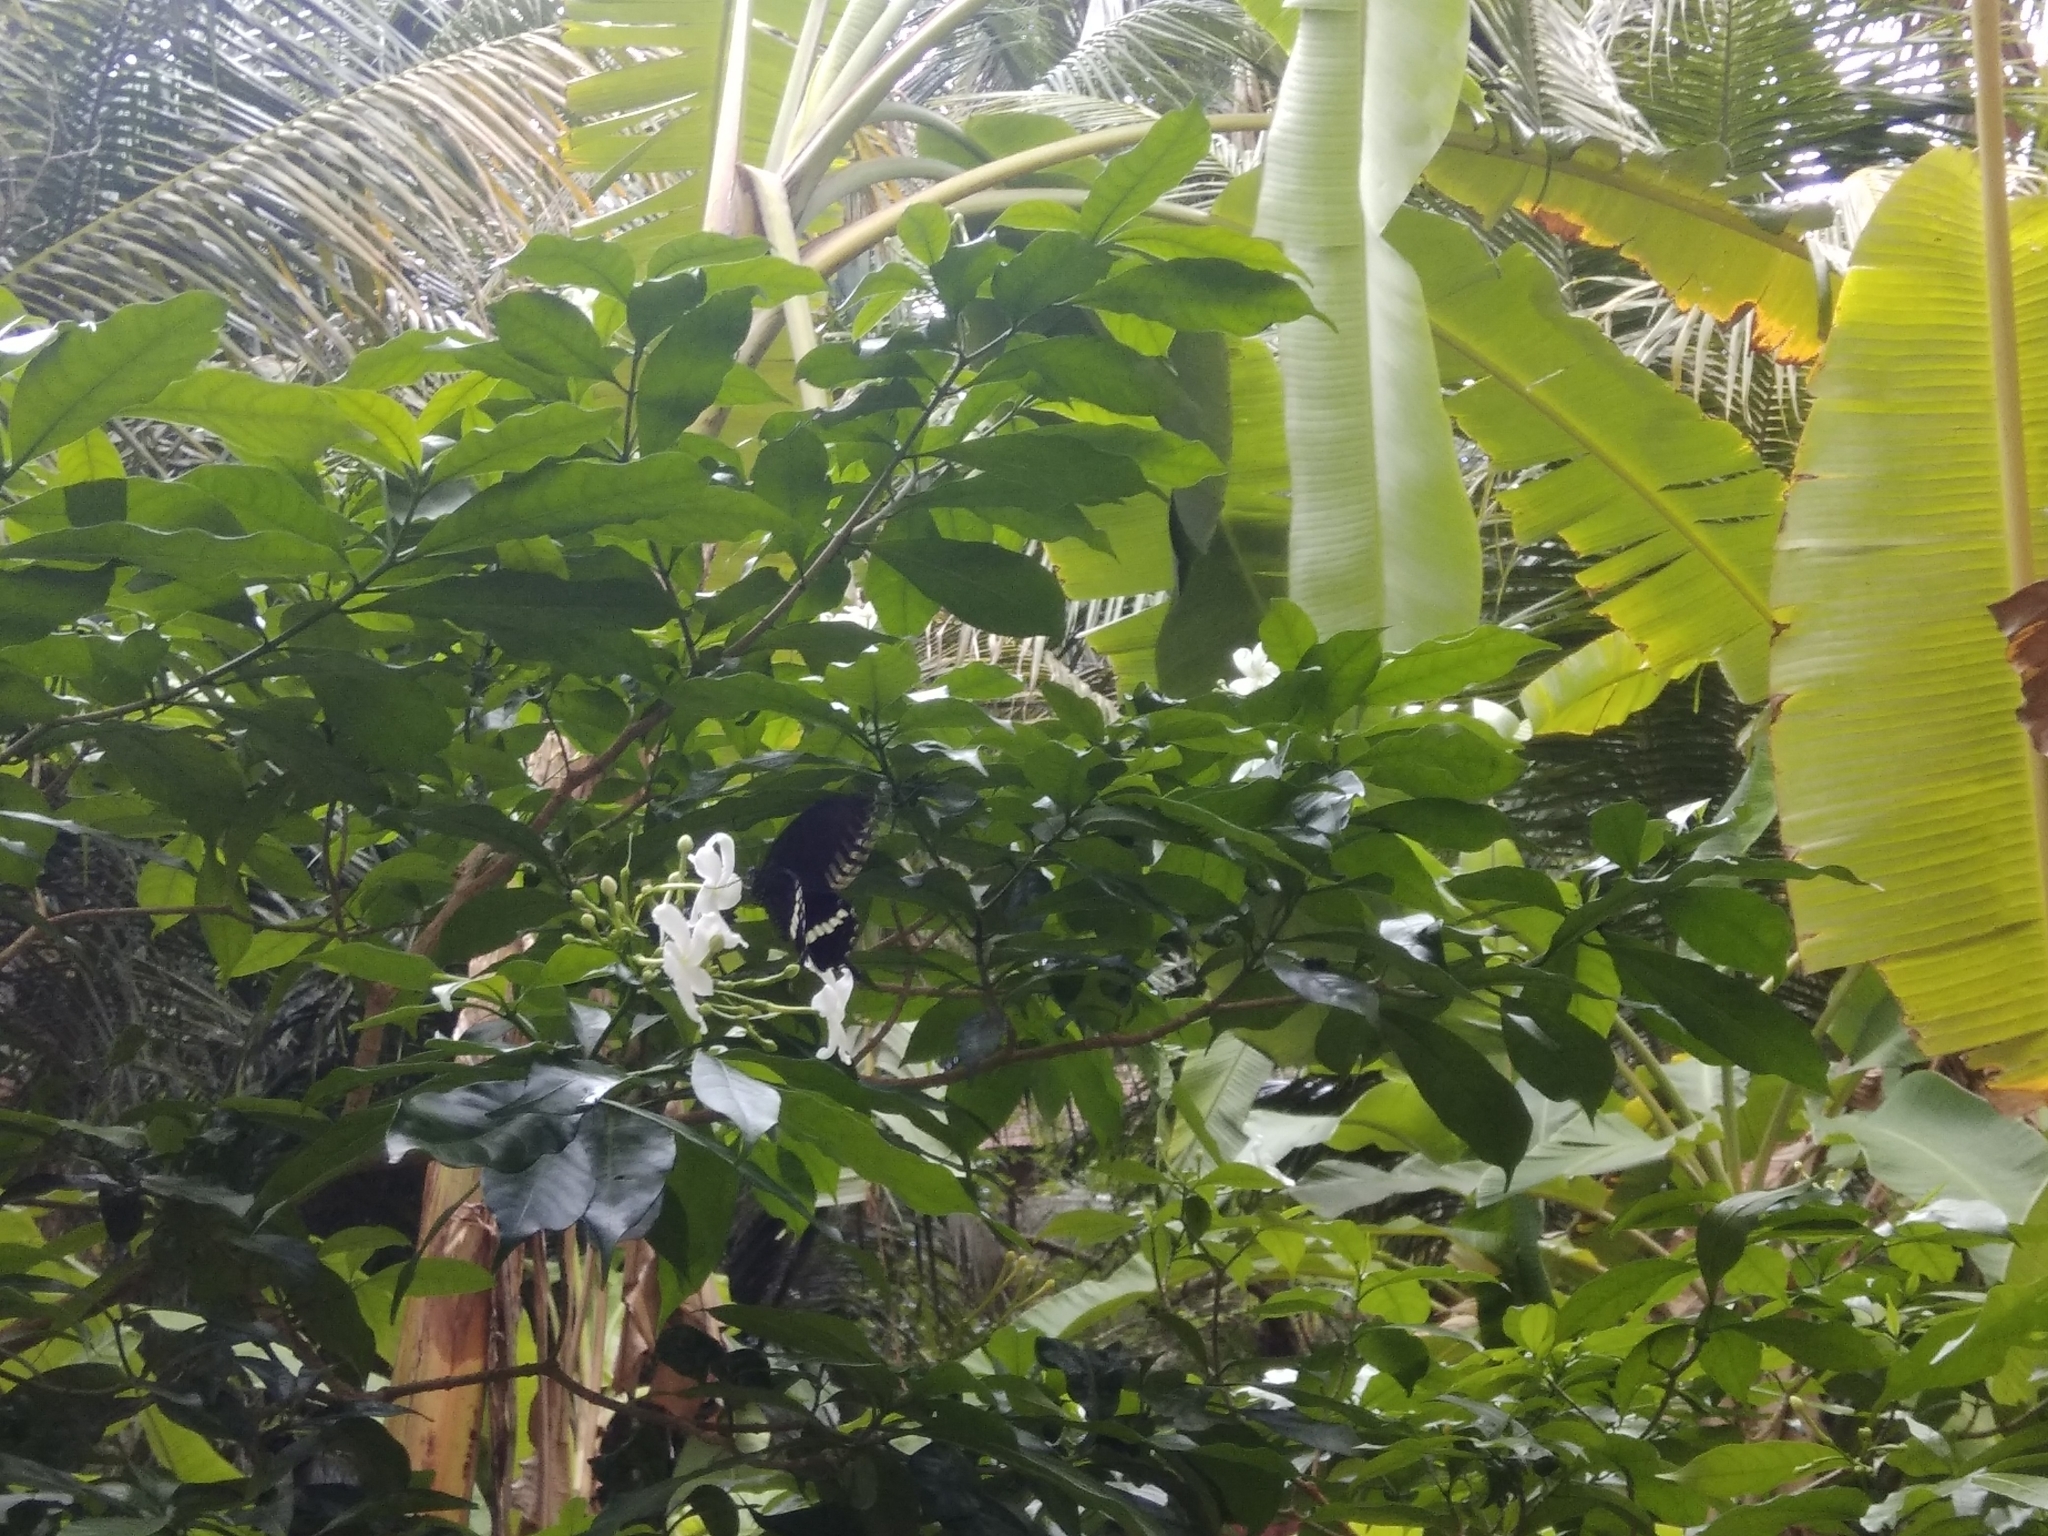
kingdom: Animalia
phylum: Arthropoda
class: Insecta
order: Lepidoptera
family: Papilionidae
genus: Papilio
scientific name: Papilio polytes
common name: Common mormon
